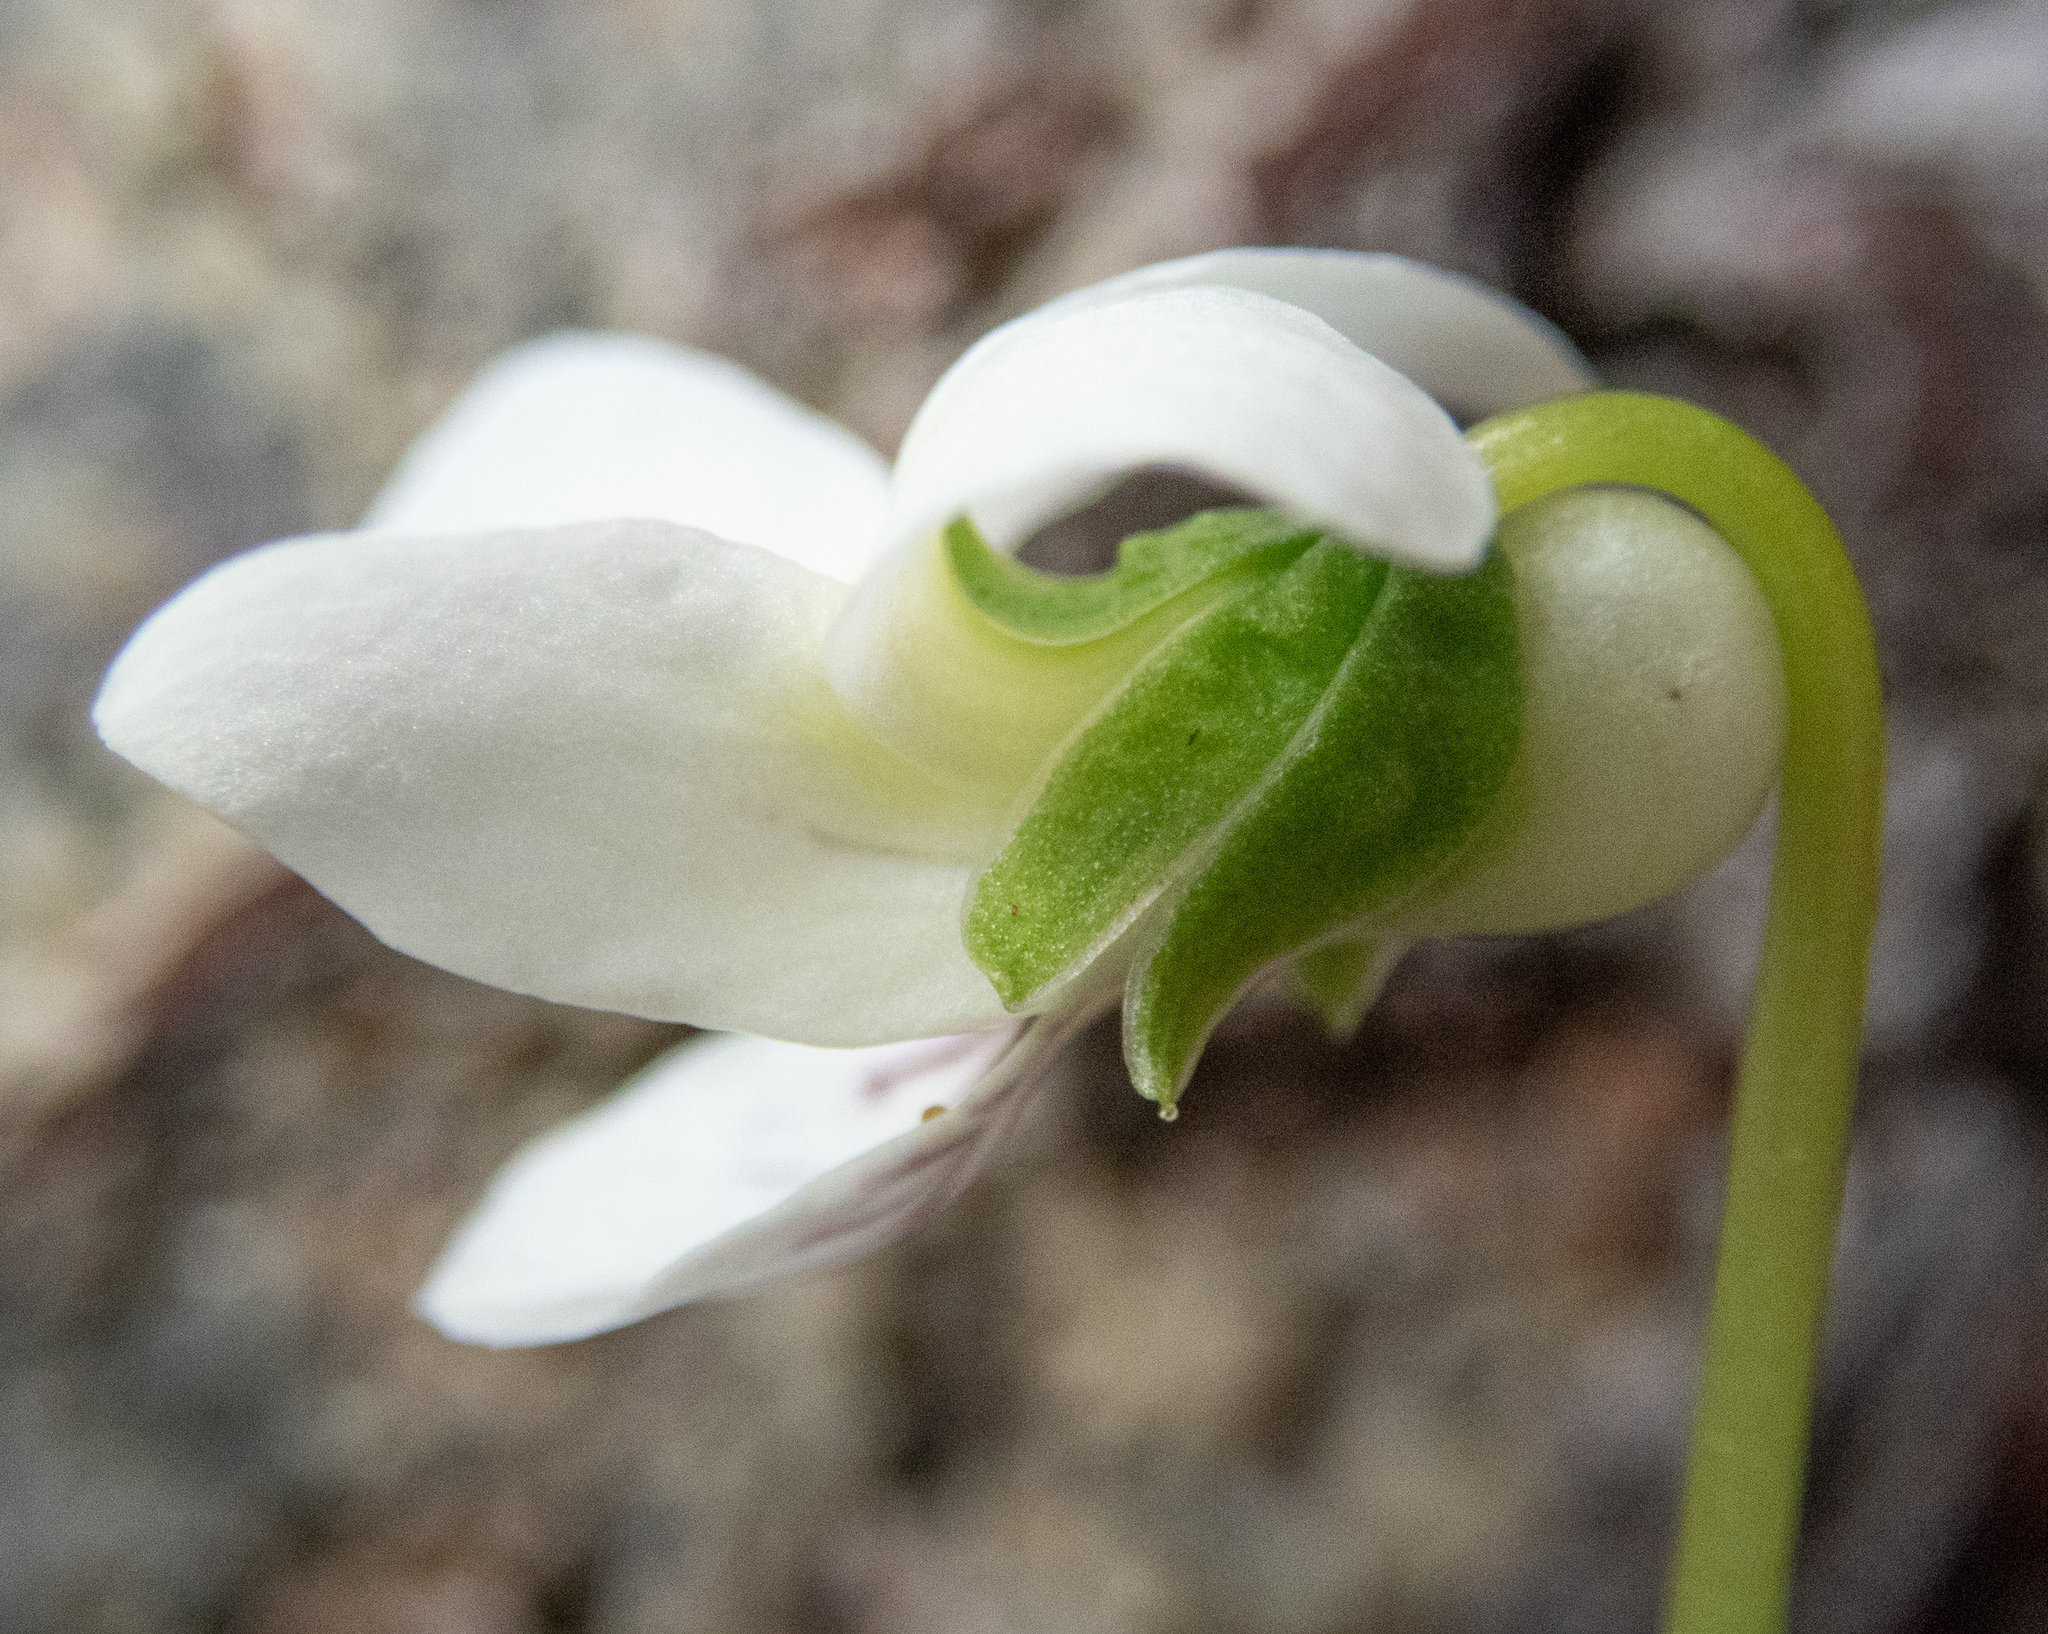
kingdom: Plantae
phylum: Tracheophyta
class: Magnoliopsida
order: Malpighiales
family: Violaceae
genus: Viola
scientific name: Viola macloskeyi
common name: Macloskey's violet
